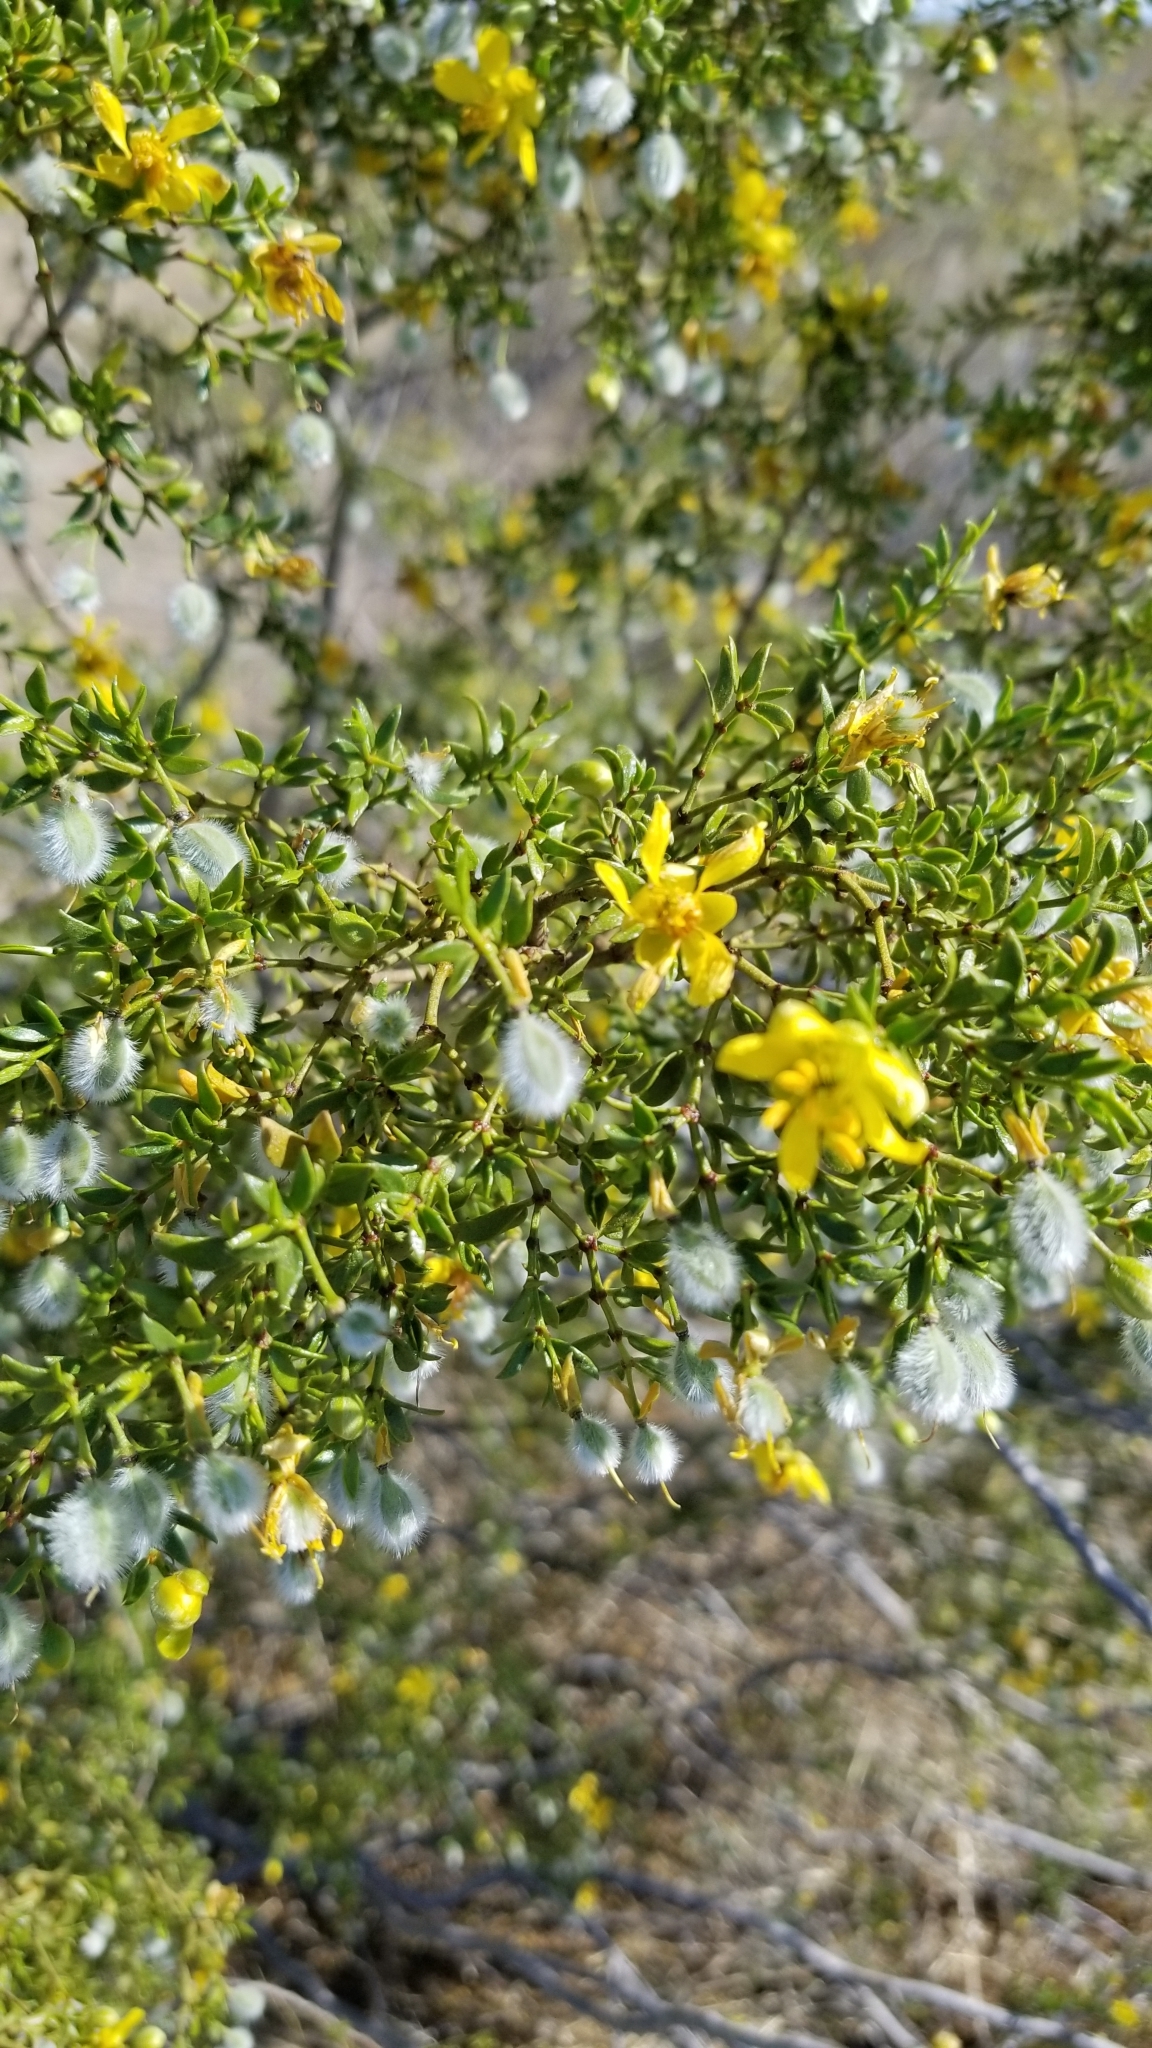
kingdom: Plantae
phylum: Tracheophyta
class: Magnoliopsida
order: Zygophyllales
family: Zygophyllaceae
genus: Larrea
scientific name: Larrea tridentata
